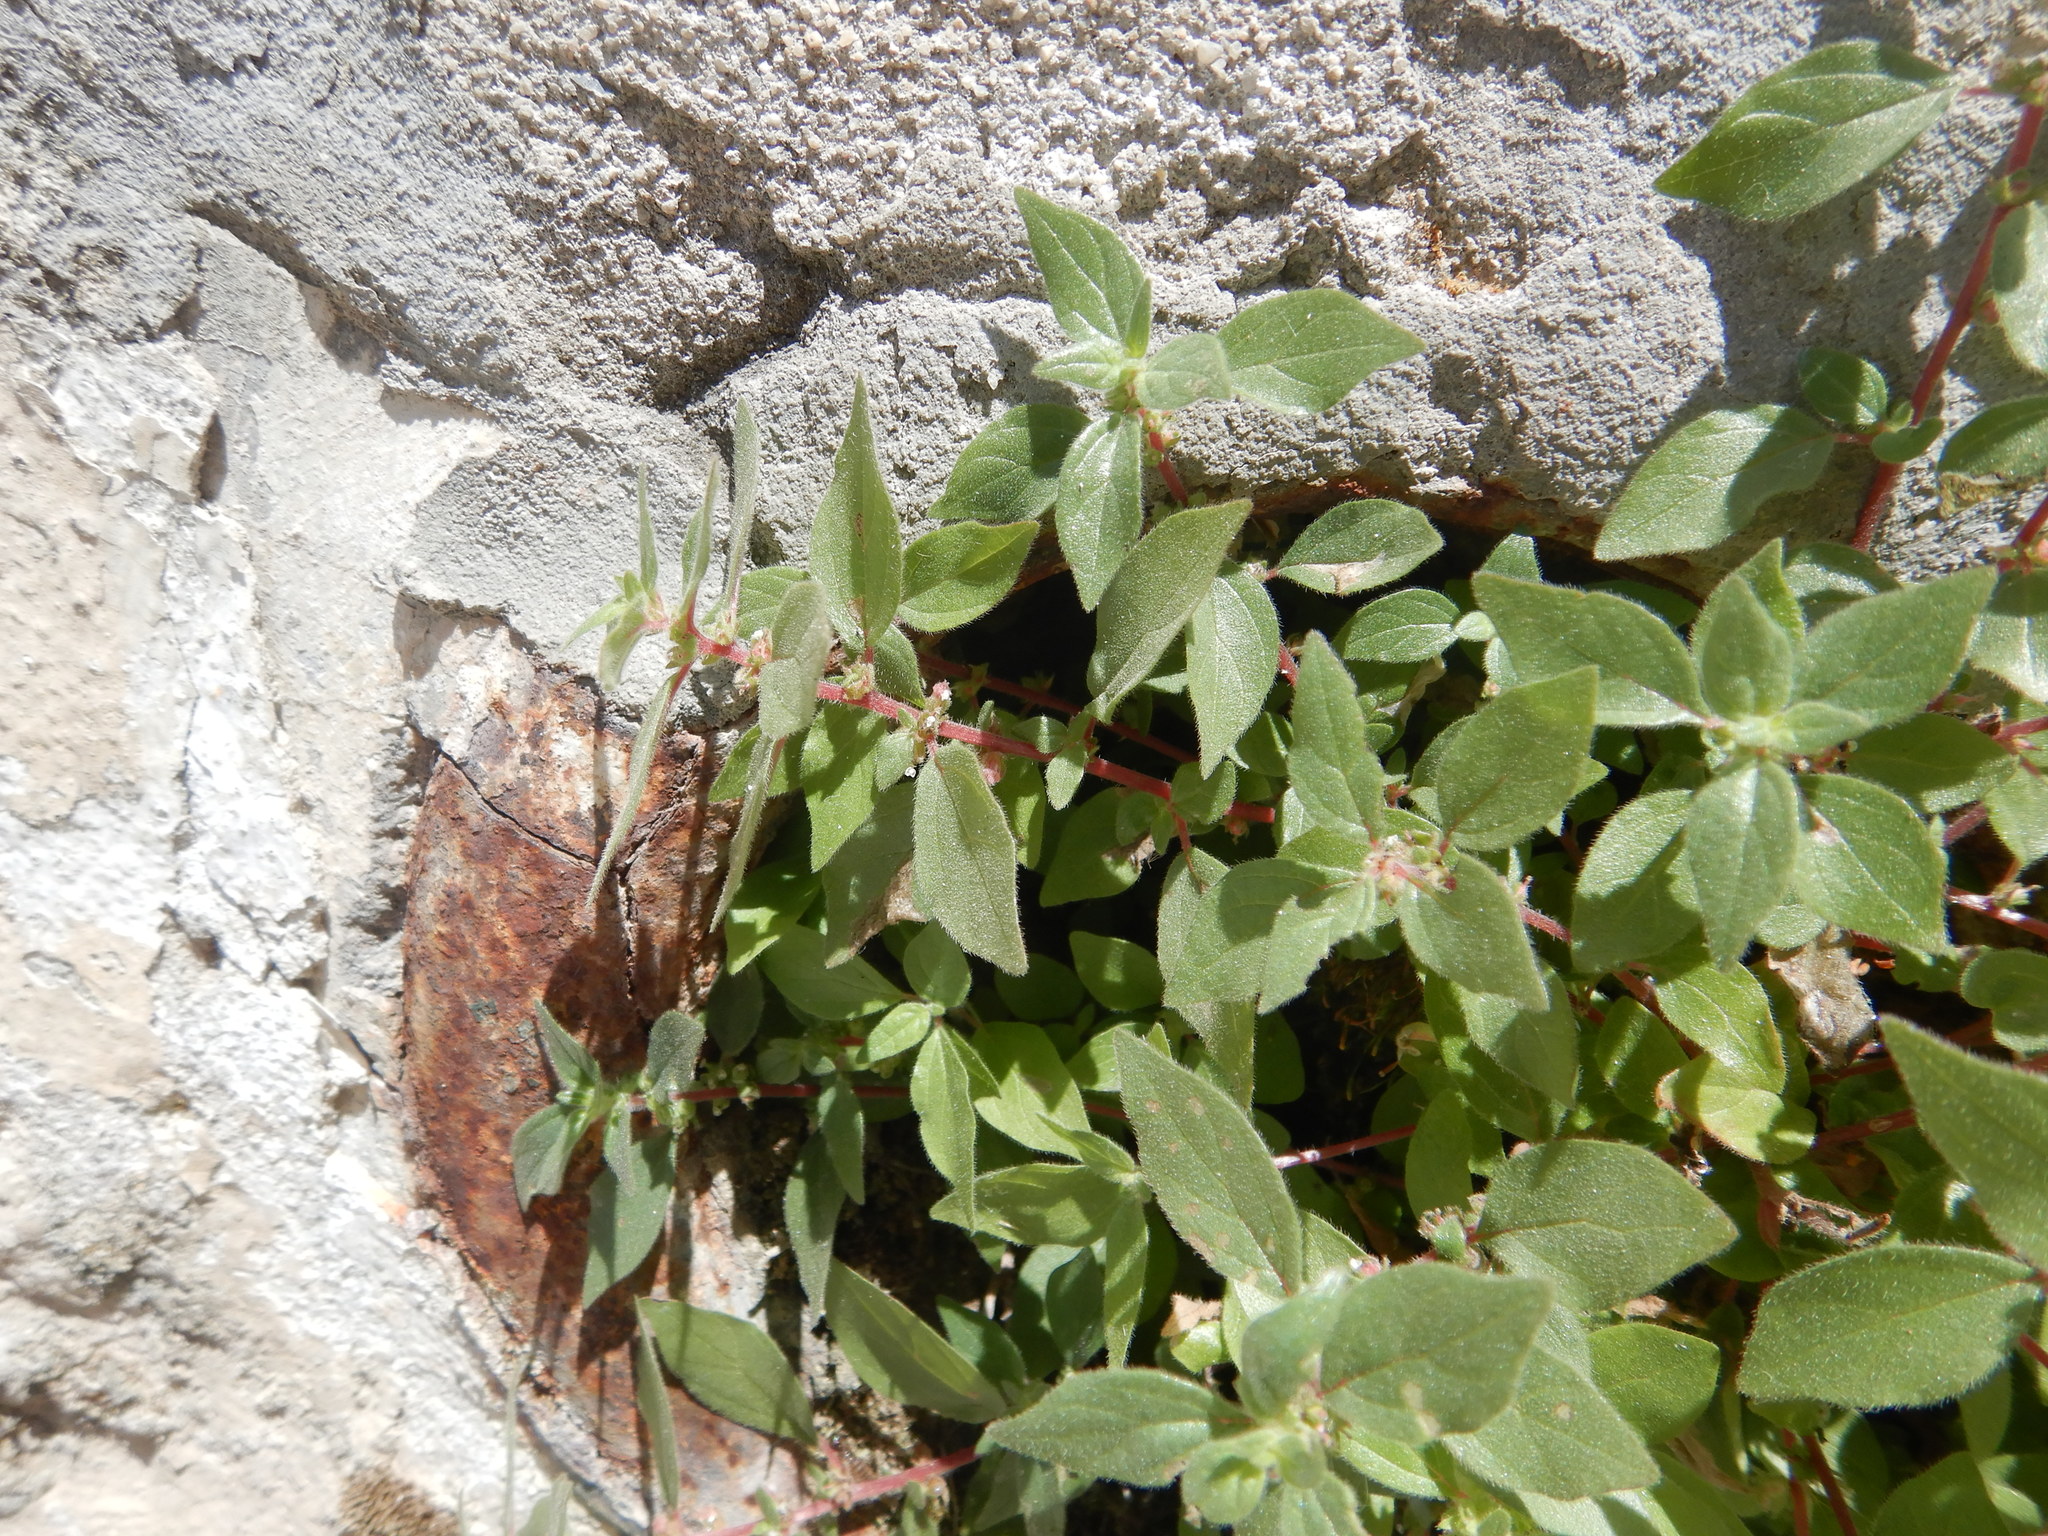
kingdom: Plantae
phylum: Tracheophyta
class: Magnoliopsida
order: Rosales
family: Urticaceae
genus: Parietaria
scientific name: Parietaria judaica
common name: Pellitory-of-the-wall
